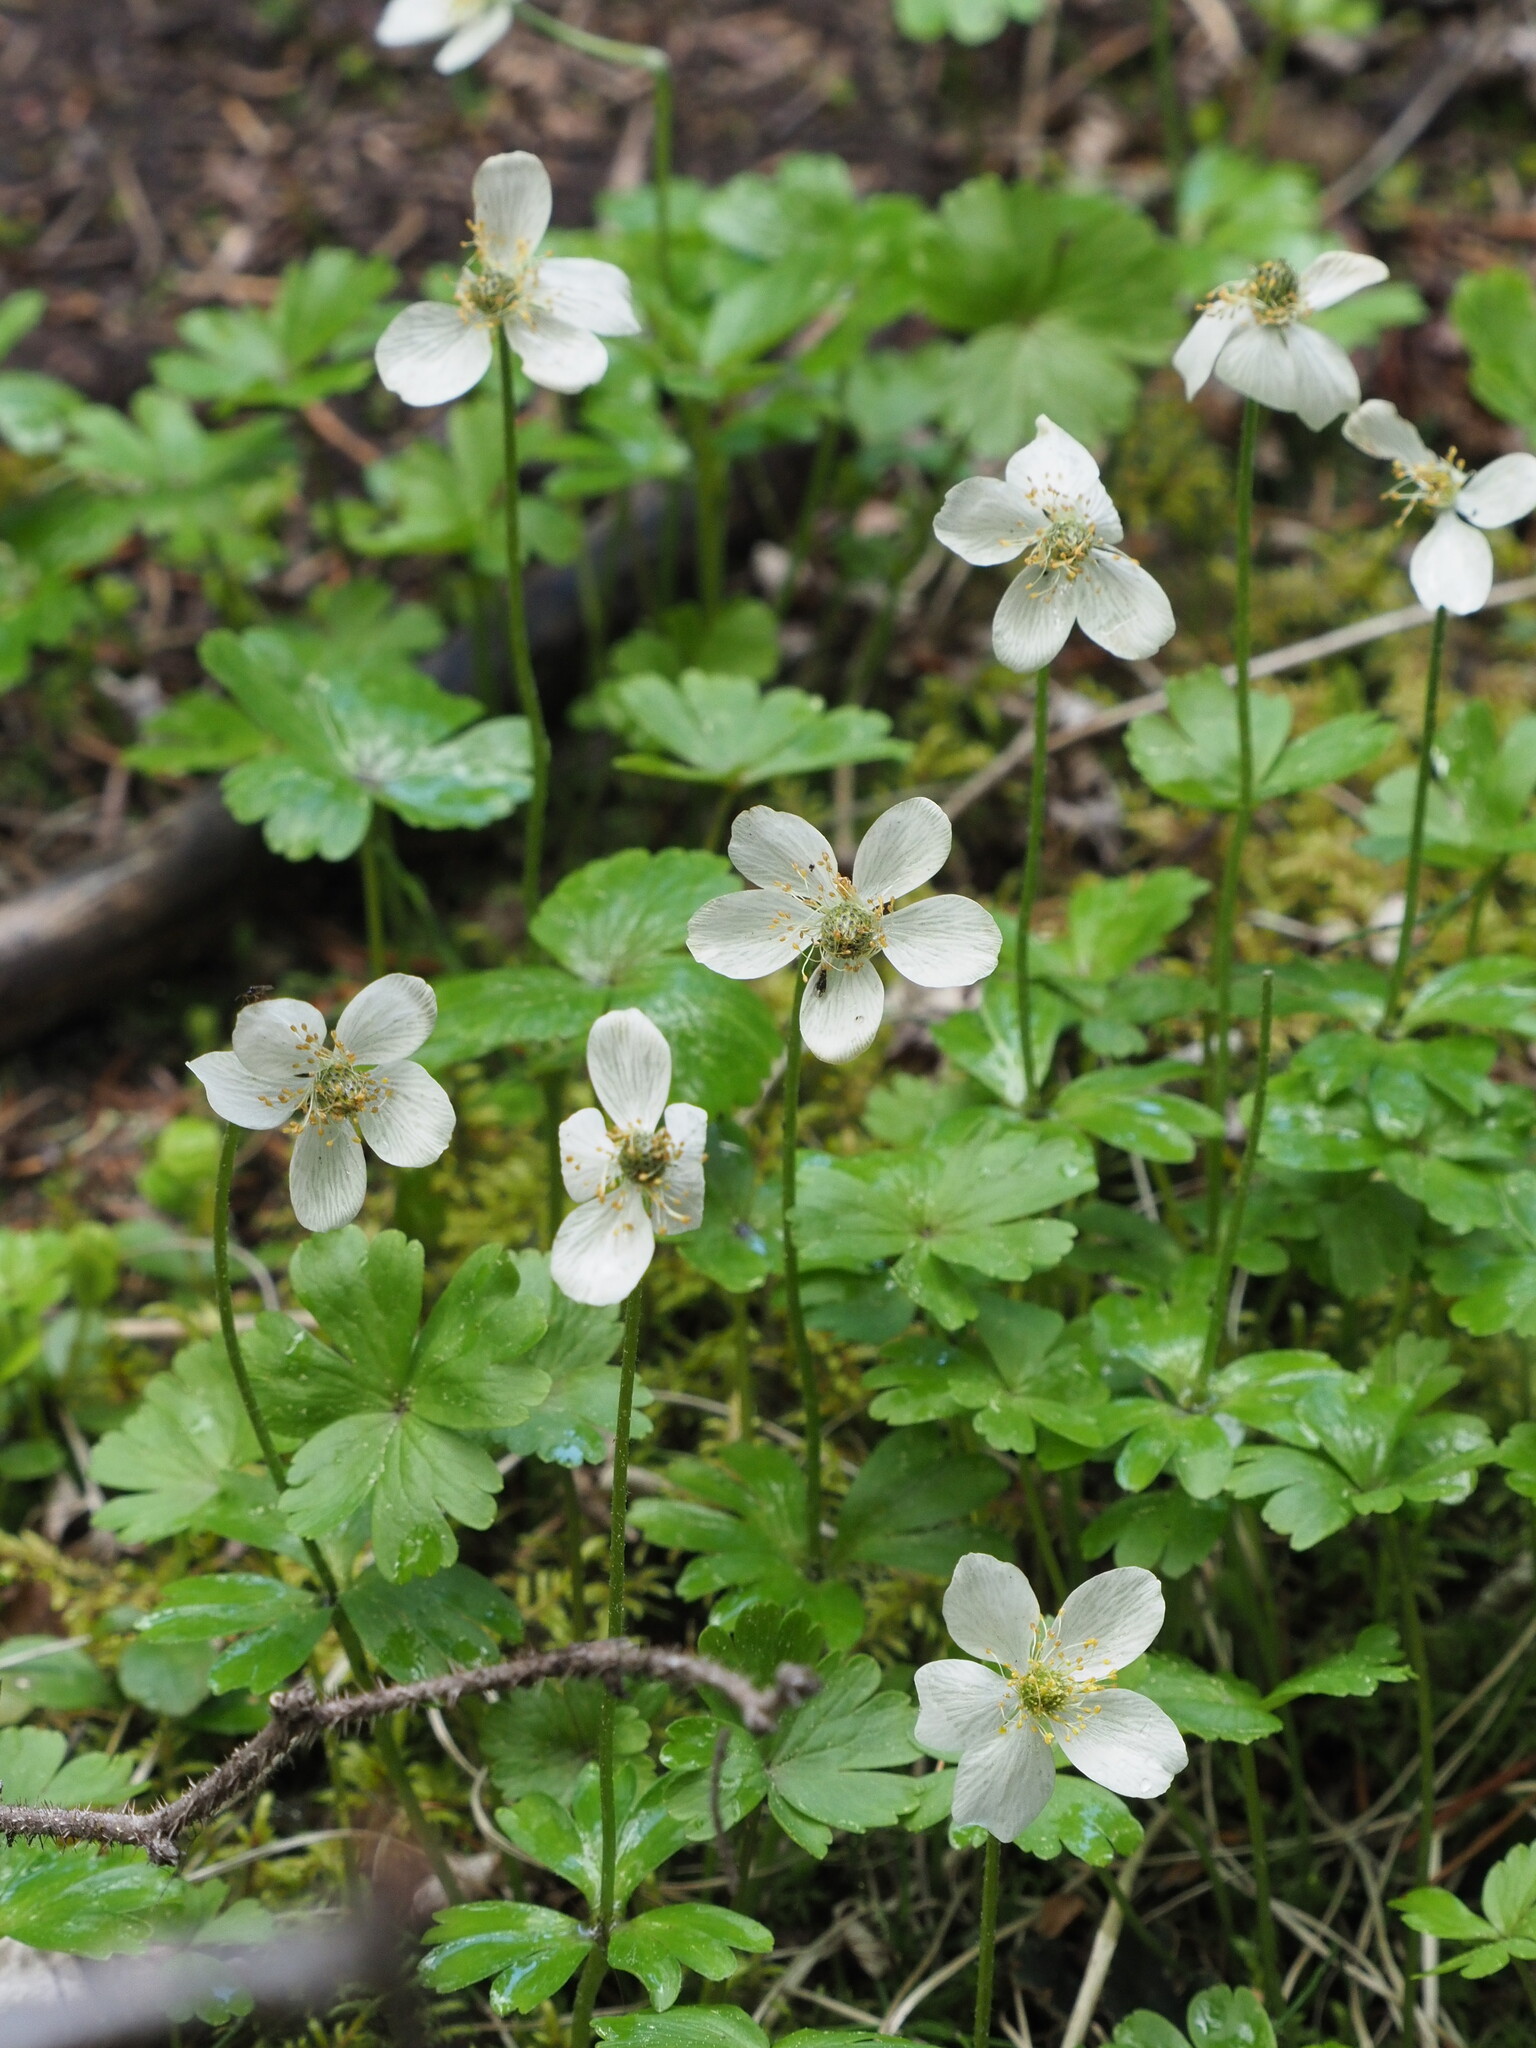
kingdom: Plantae
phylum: Tracheophyta
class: Magnoliopsida
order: Ranunculales
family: Ranunculaceae
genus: Anemone
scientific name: Anemone parviflora
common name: Northern anemone
